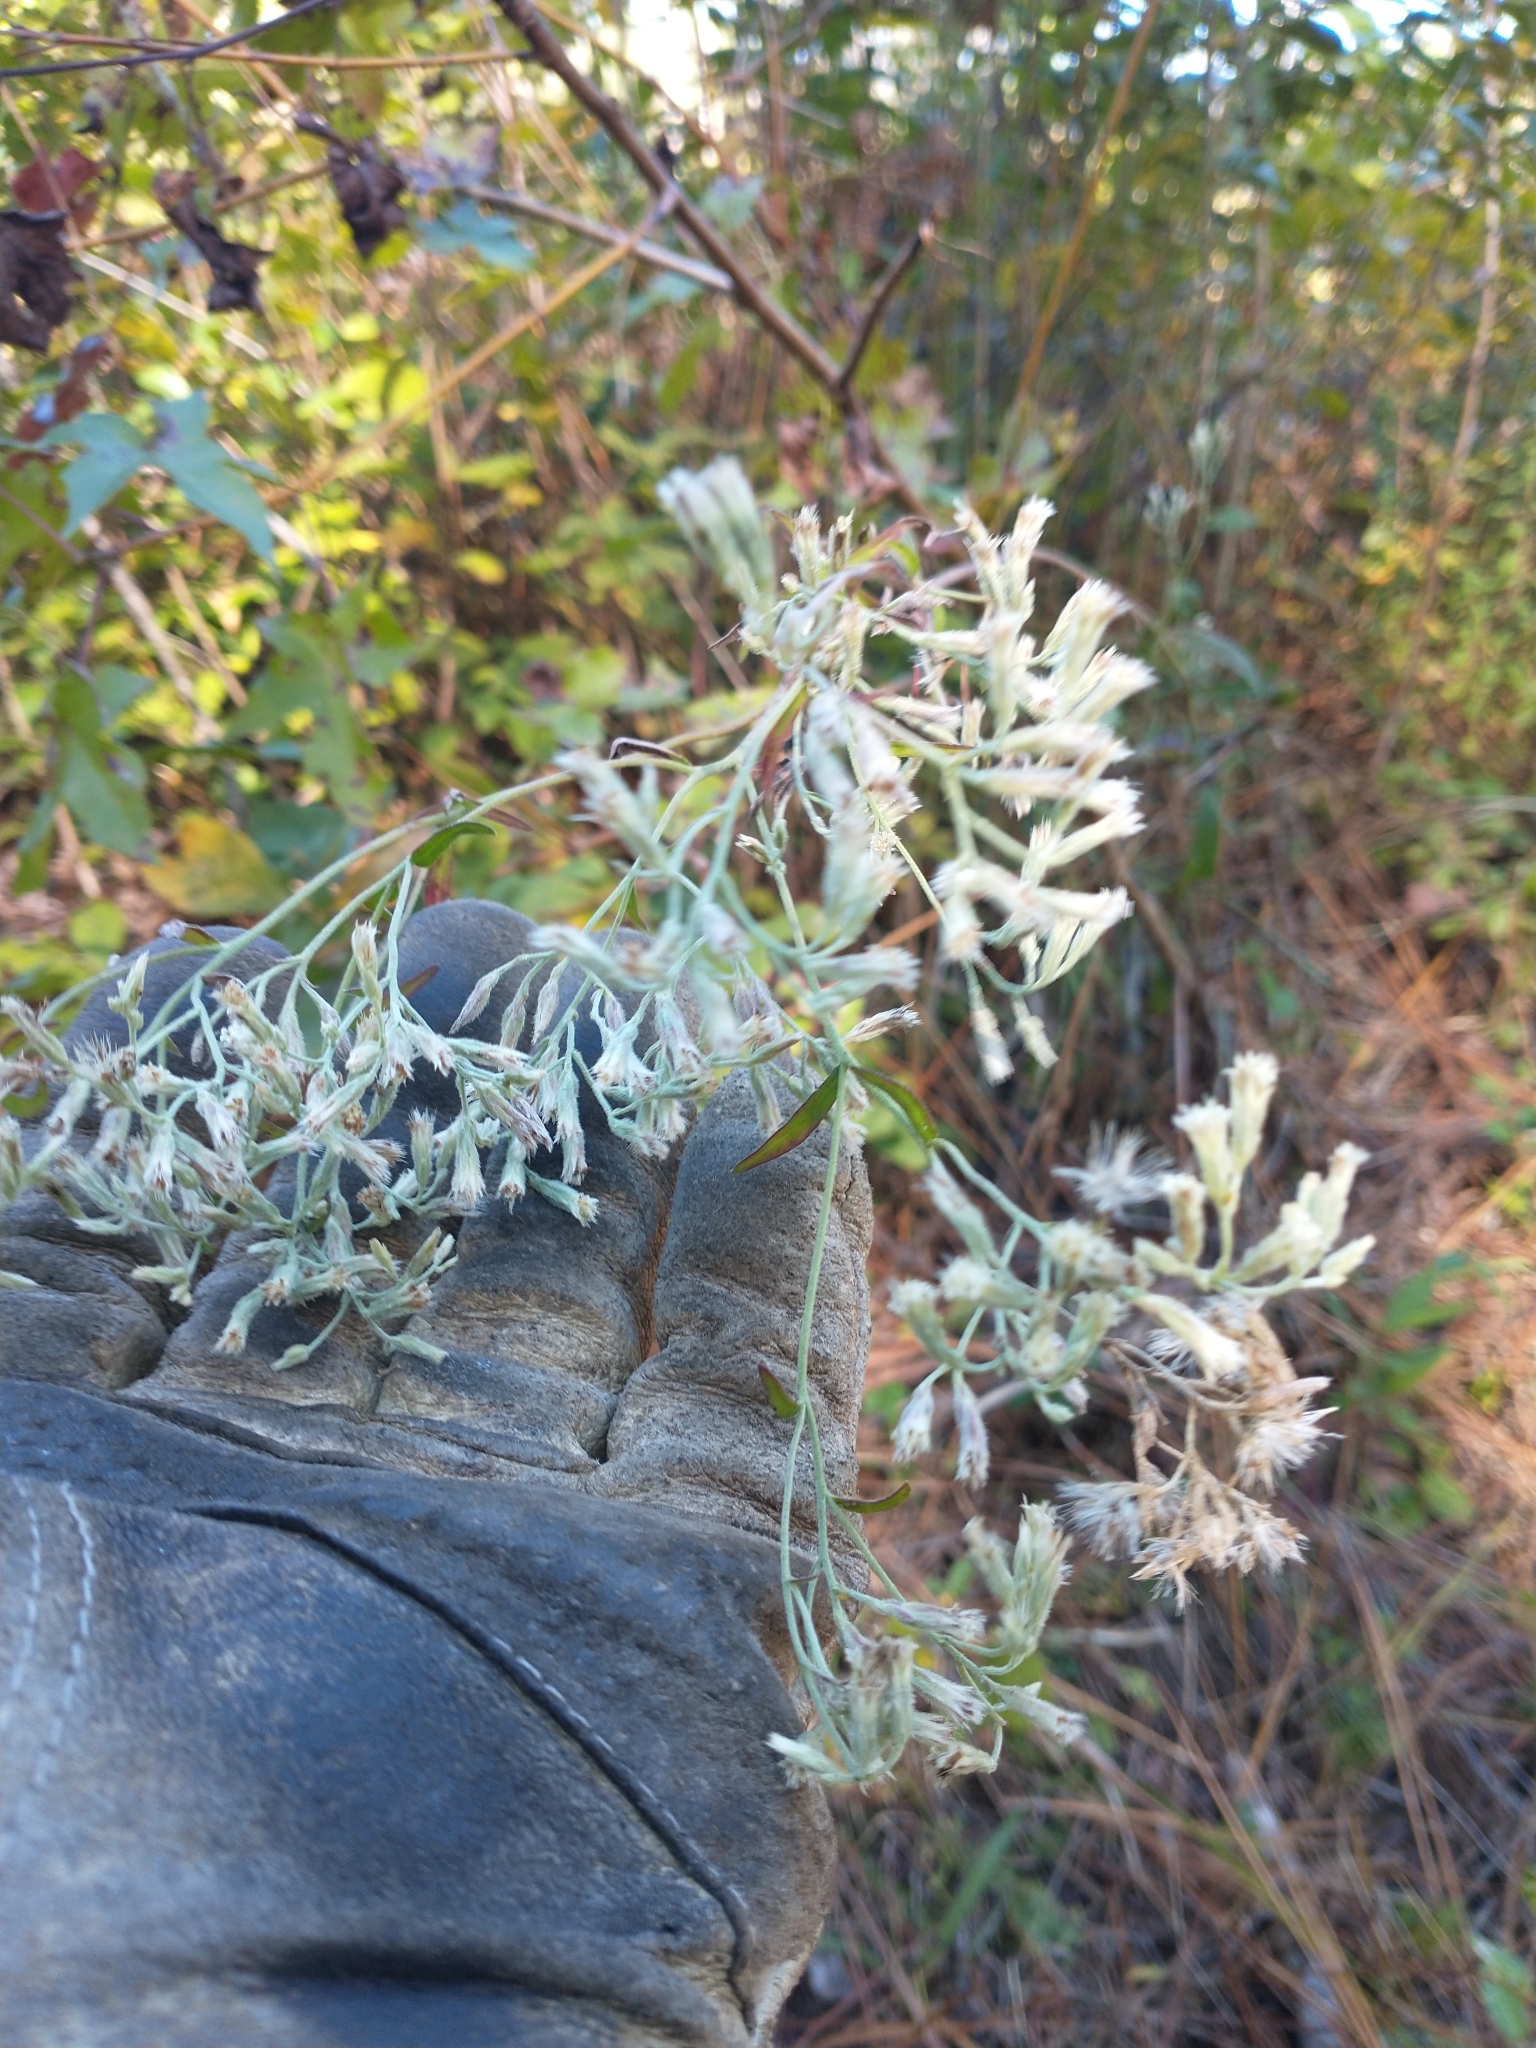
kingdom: Plantae
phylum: Tracheophyta
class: Magnoliopsida
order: Asterales
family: Asteraceae
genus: Eupatorium
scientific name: Eupatorium leucolepis
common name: Justiceweed
